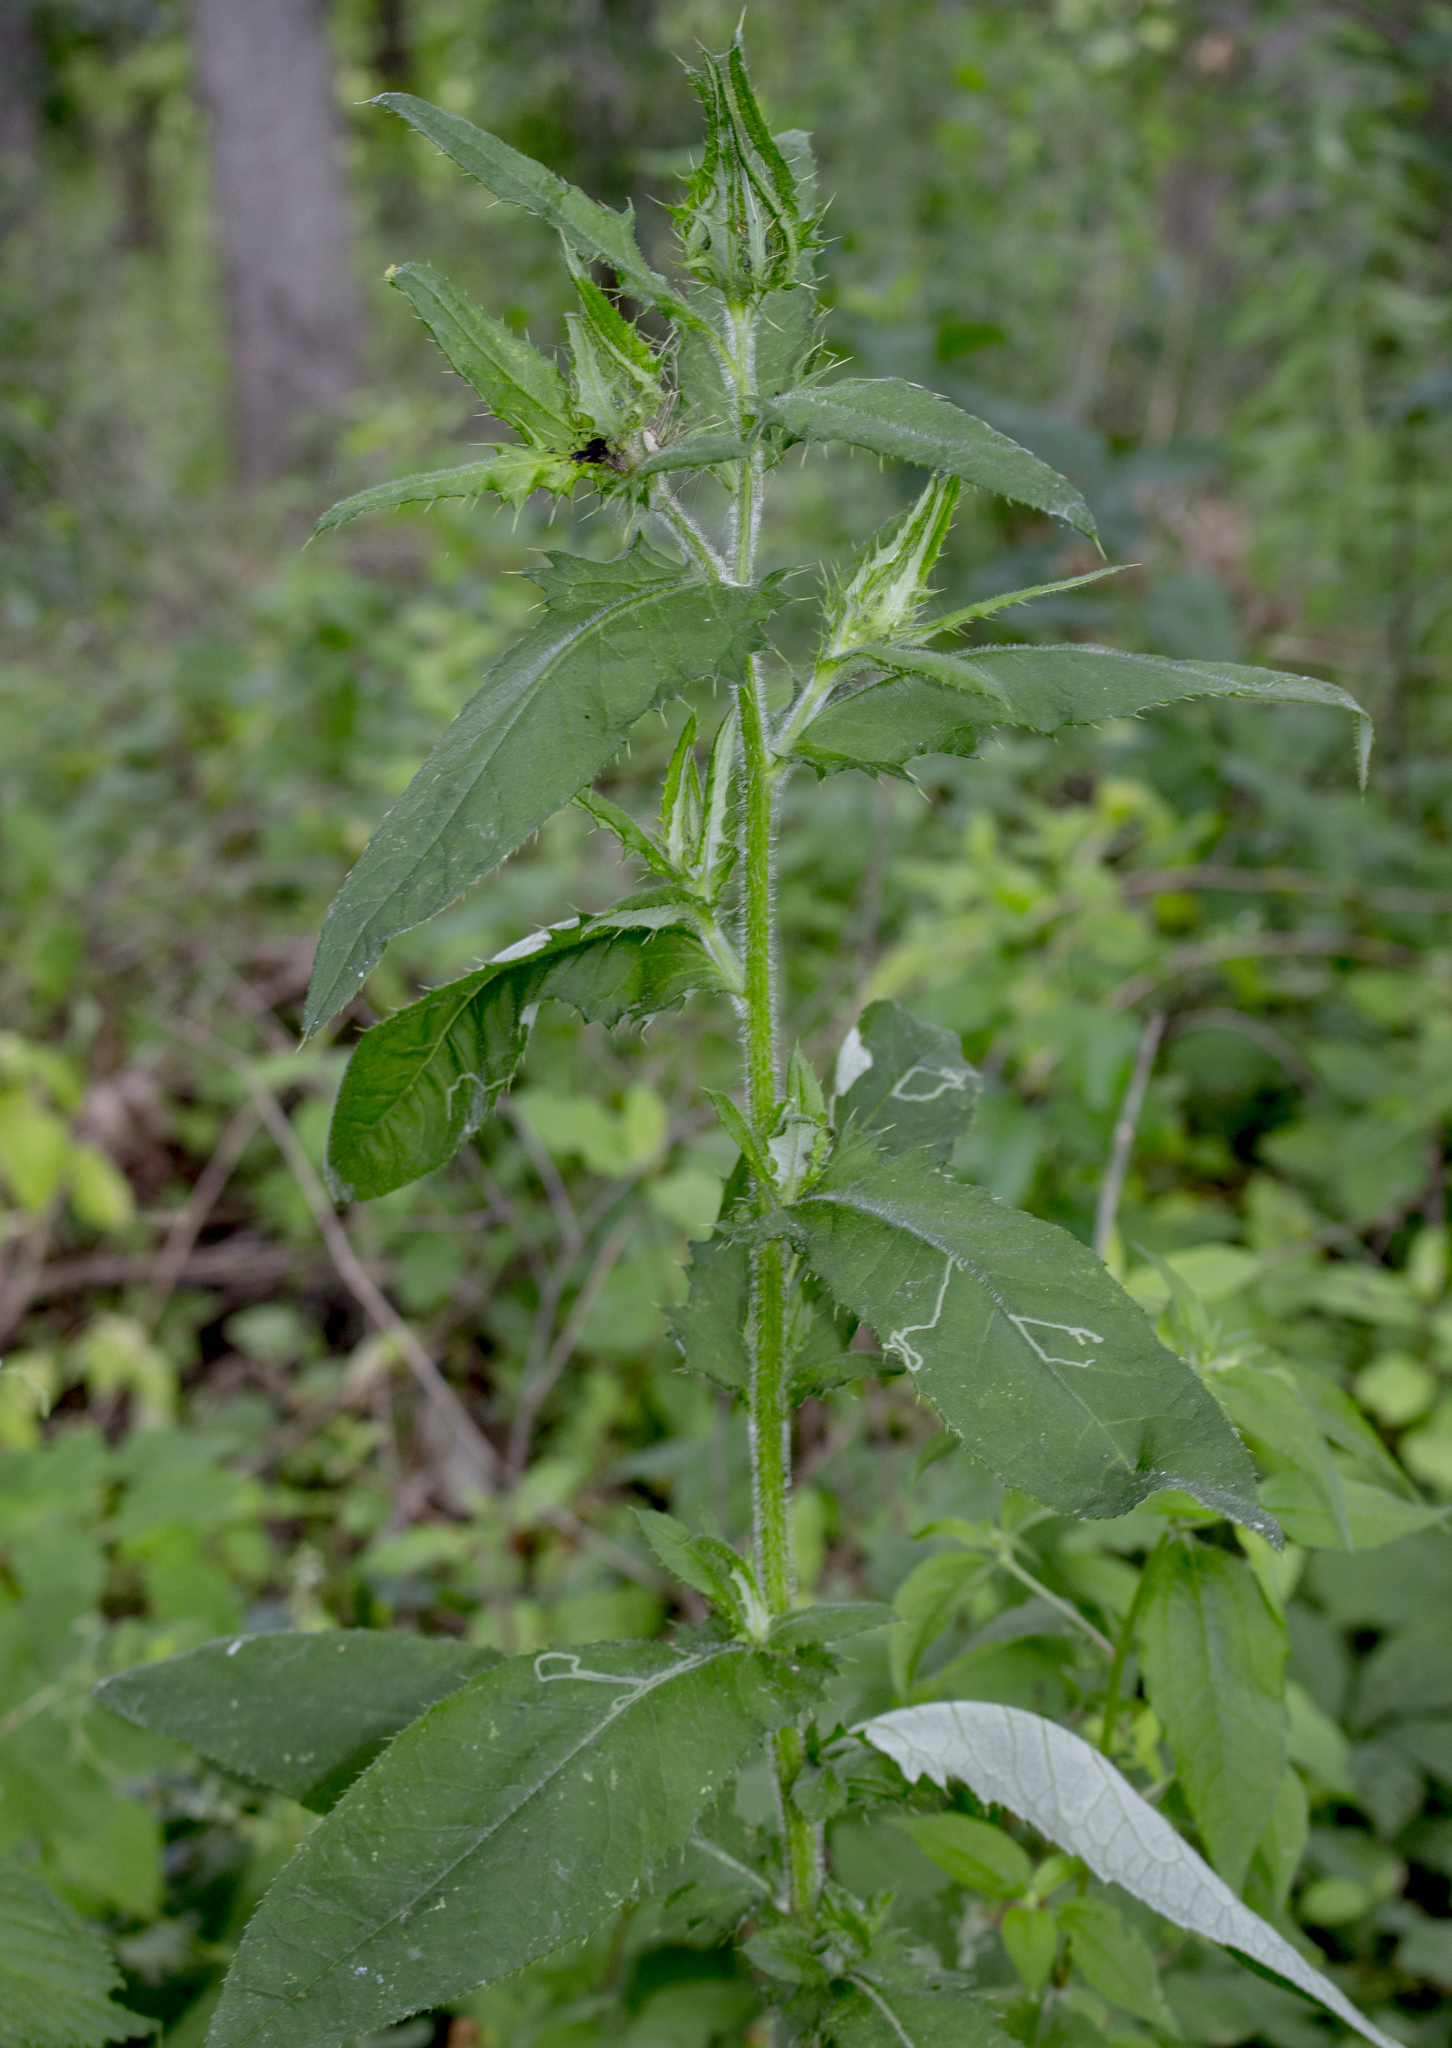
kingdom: Plantae
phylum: Tracheophyta
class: Magnoliopsida
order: Asterales
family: Asteraceae
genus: Cirsium
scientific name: Cirsium altissimum
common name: Roadside thistle
